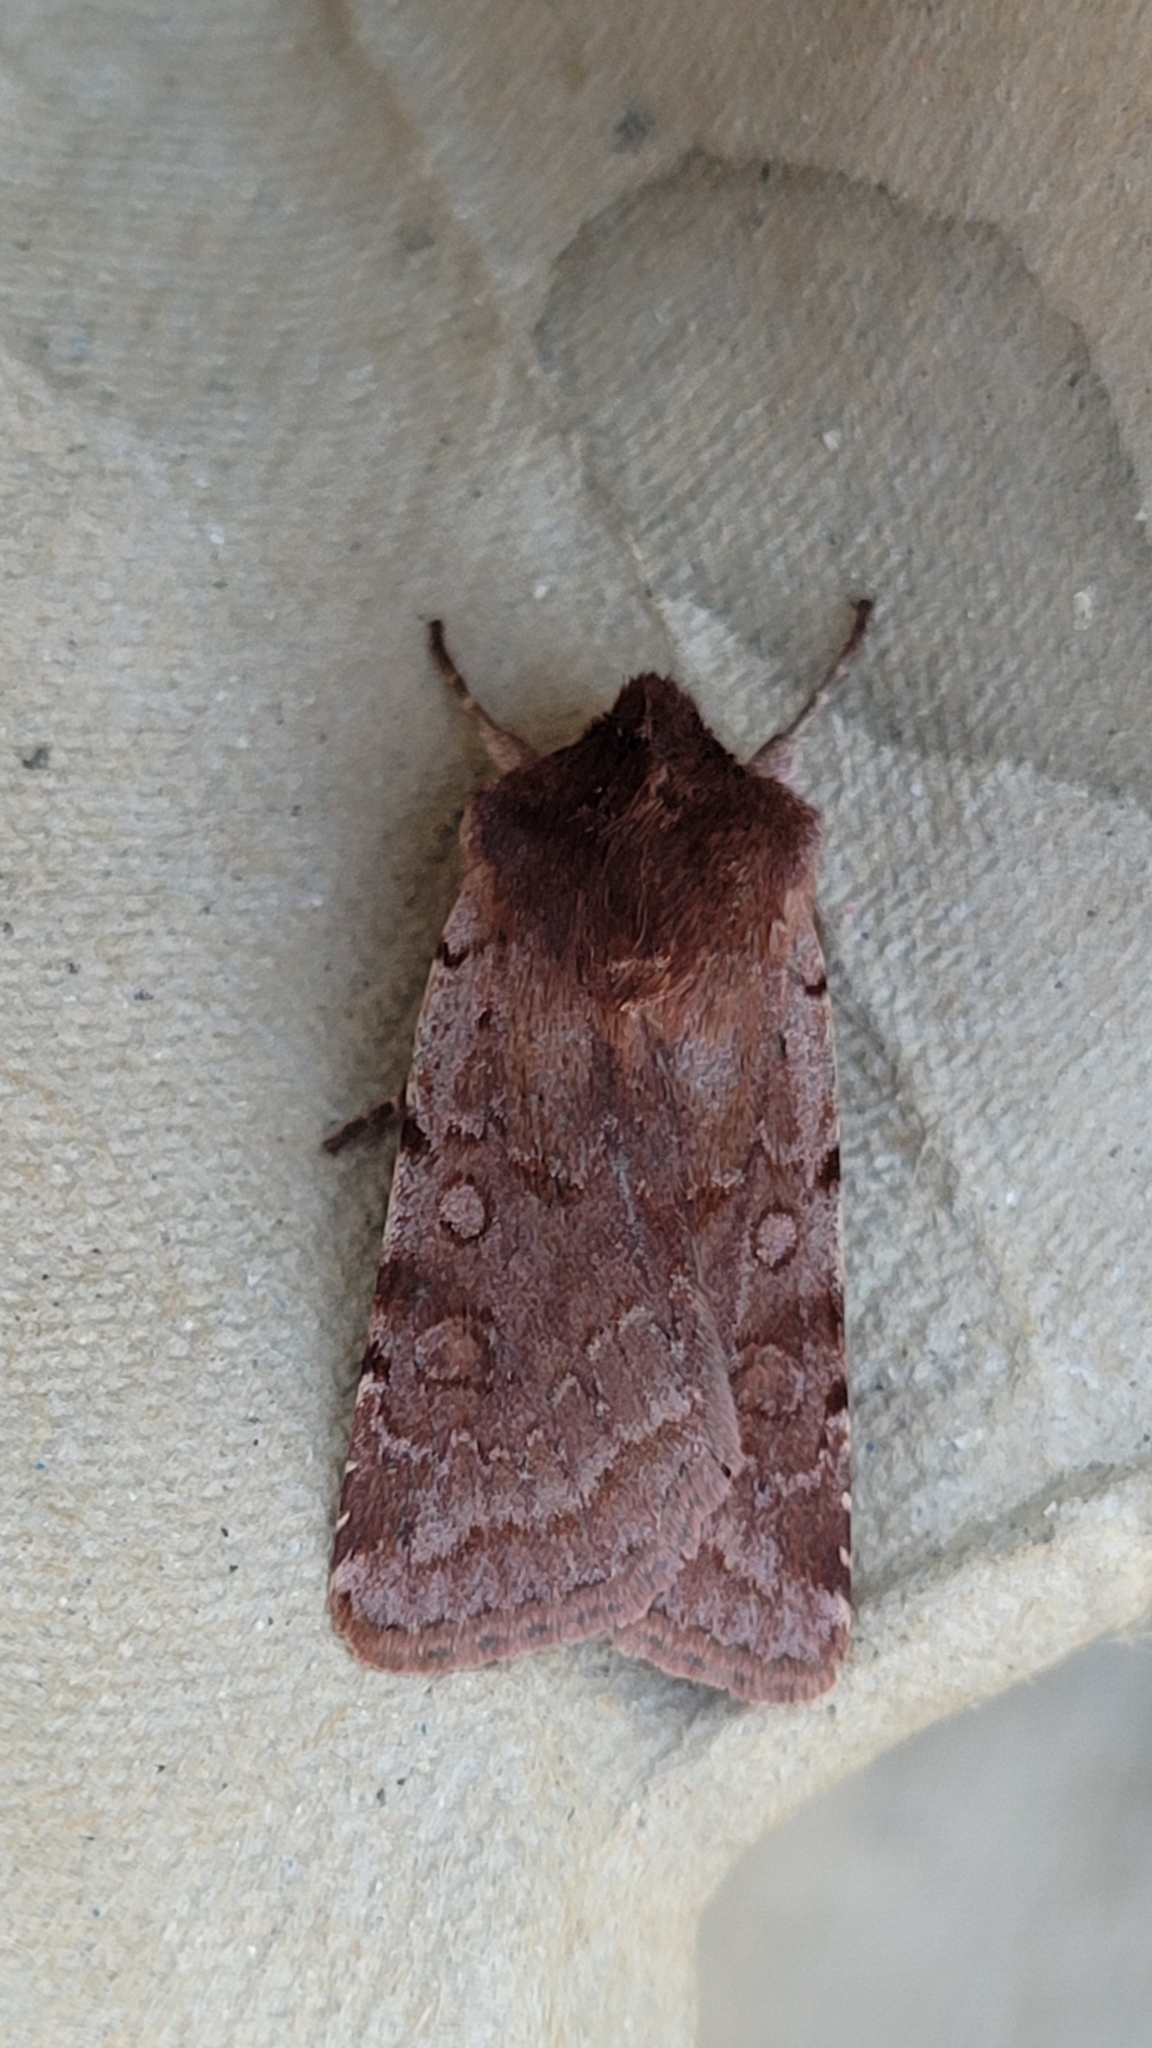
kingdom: Animalia
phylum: Arthropoda
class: Insecta
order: Lepidoptera
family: Noctuidae
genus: Cerastis
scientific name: Cerastis rubricosa
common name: Red chestnut
